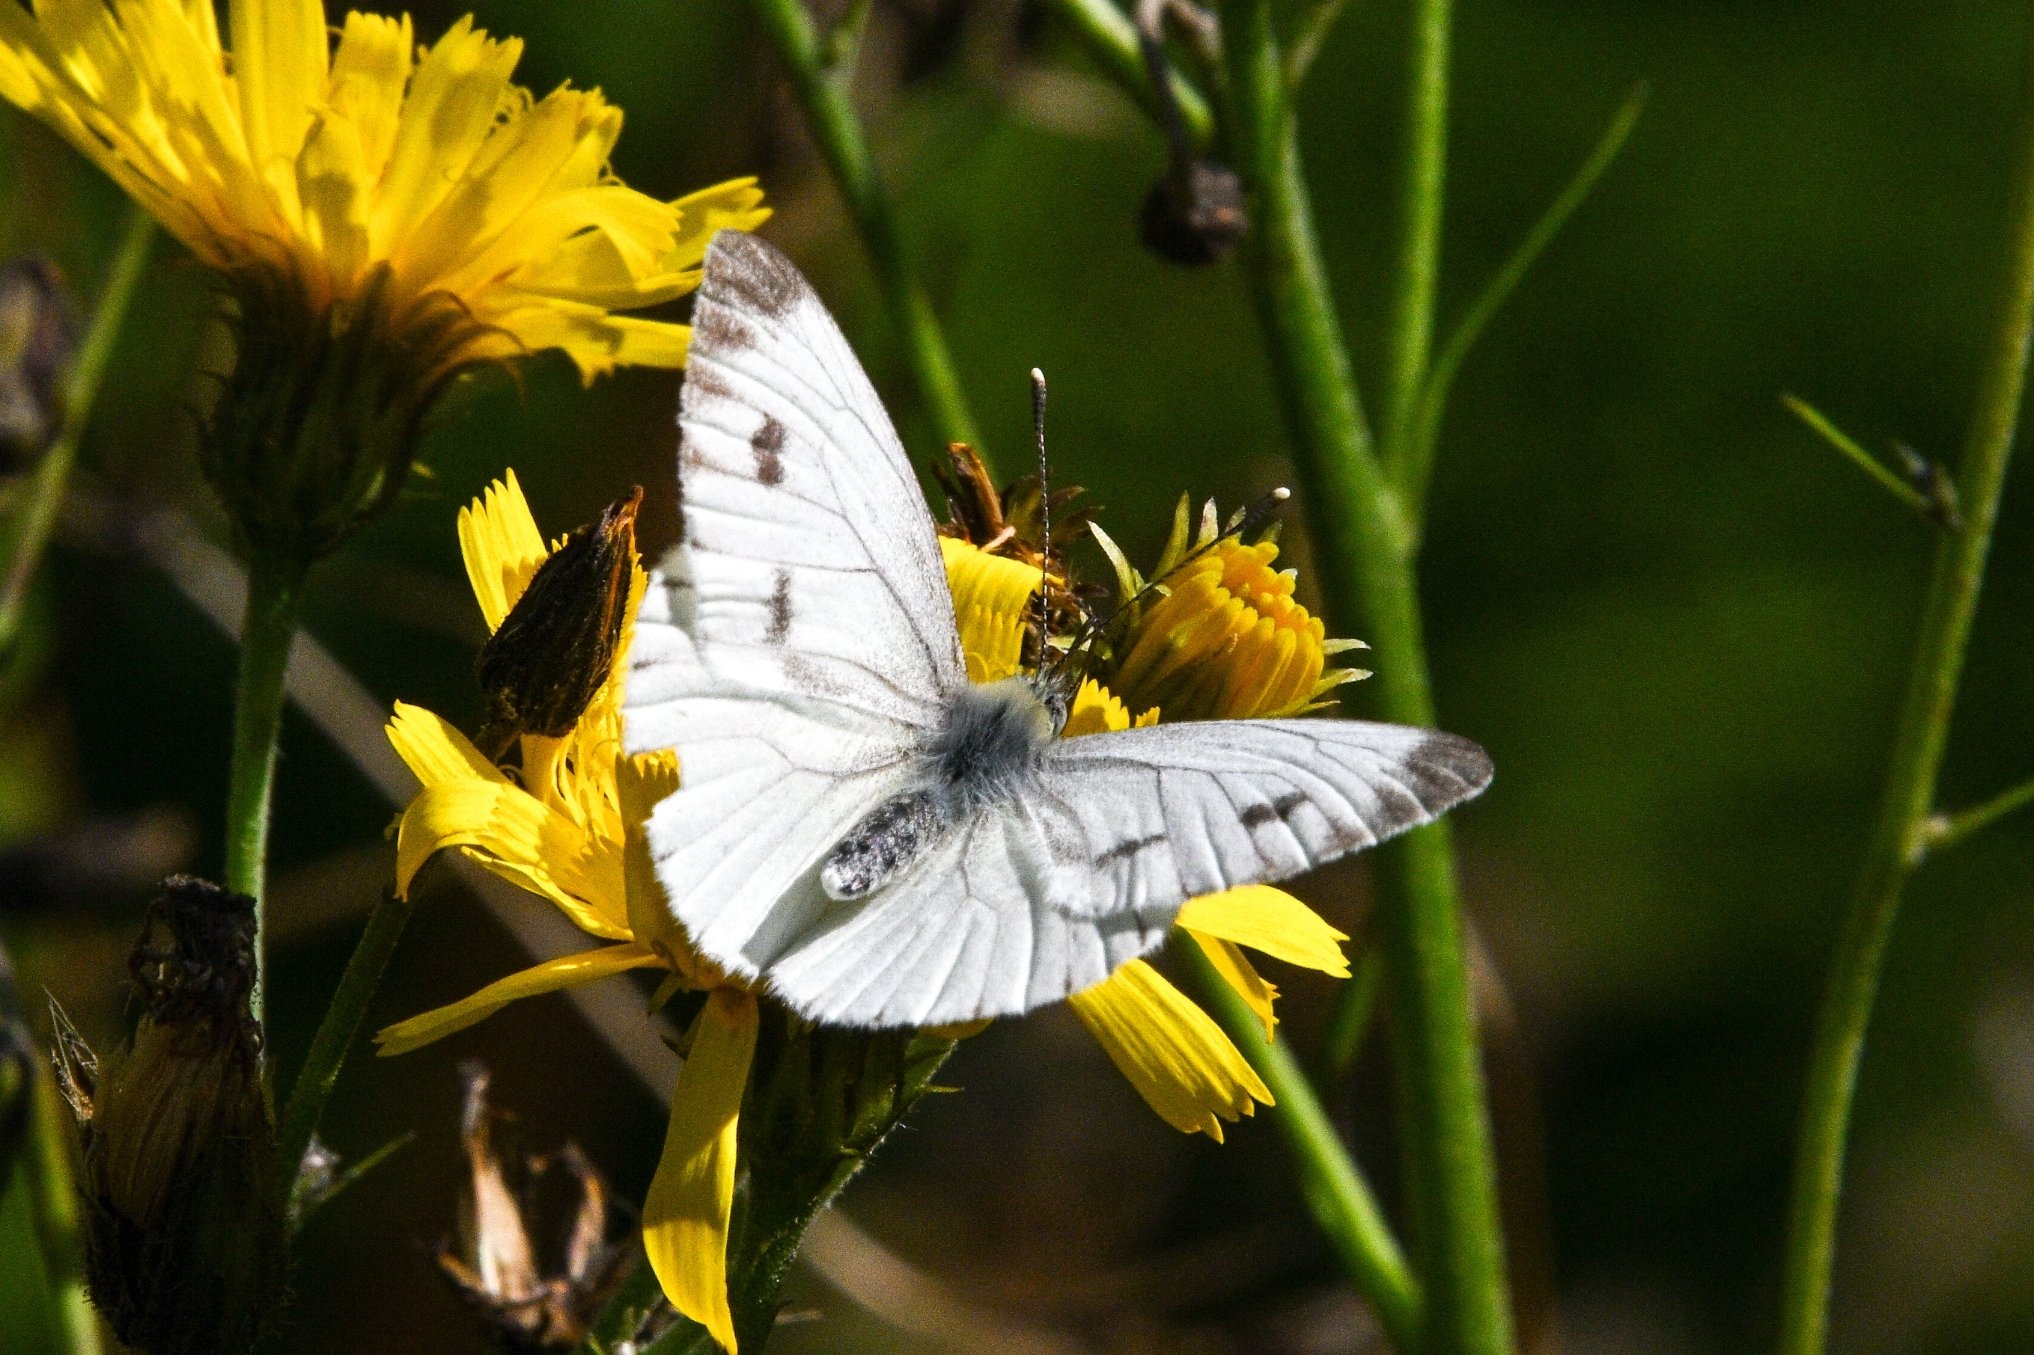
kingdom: Animalia
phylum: Arthropoda
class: Insecta
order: Lepidoptera
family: Pieridae
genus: Pieris
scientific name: Pieris napi
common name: Green-veined white
